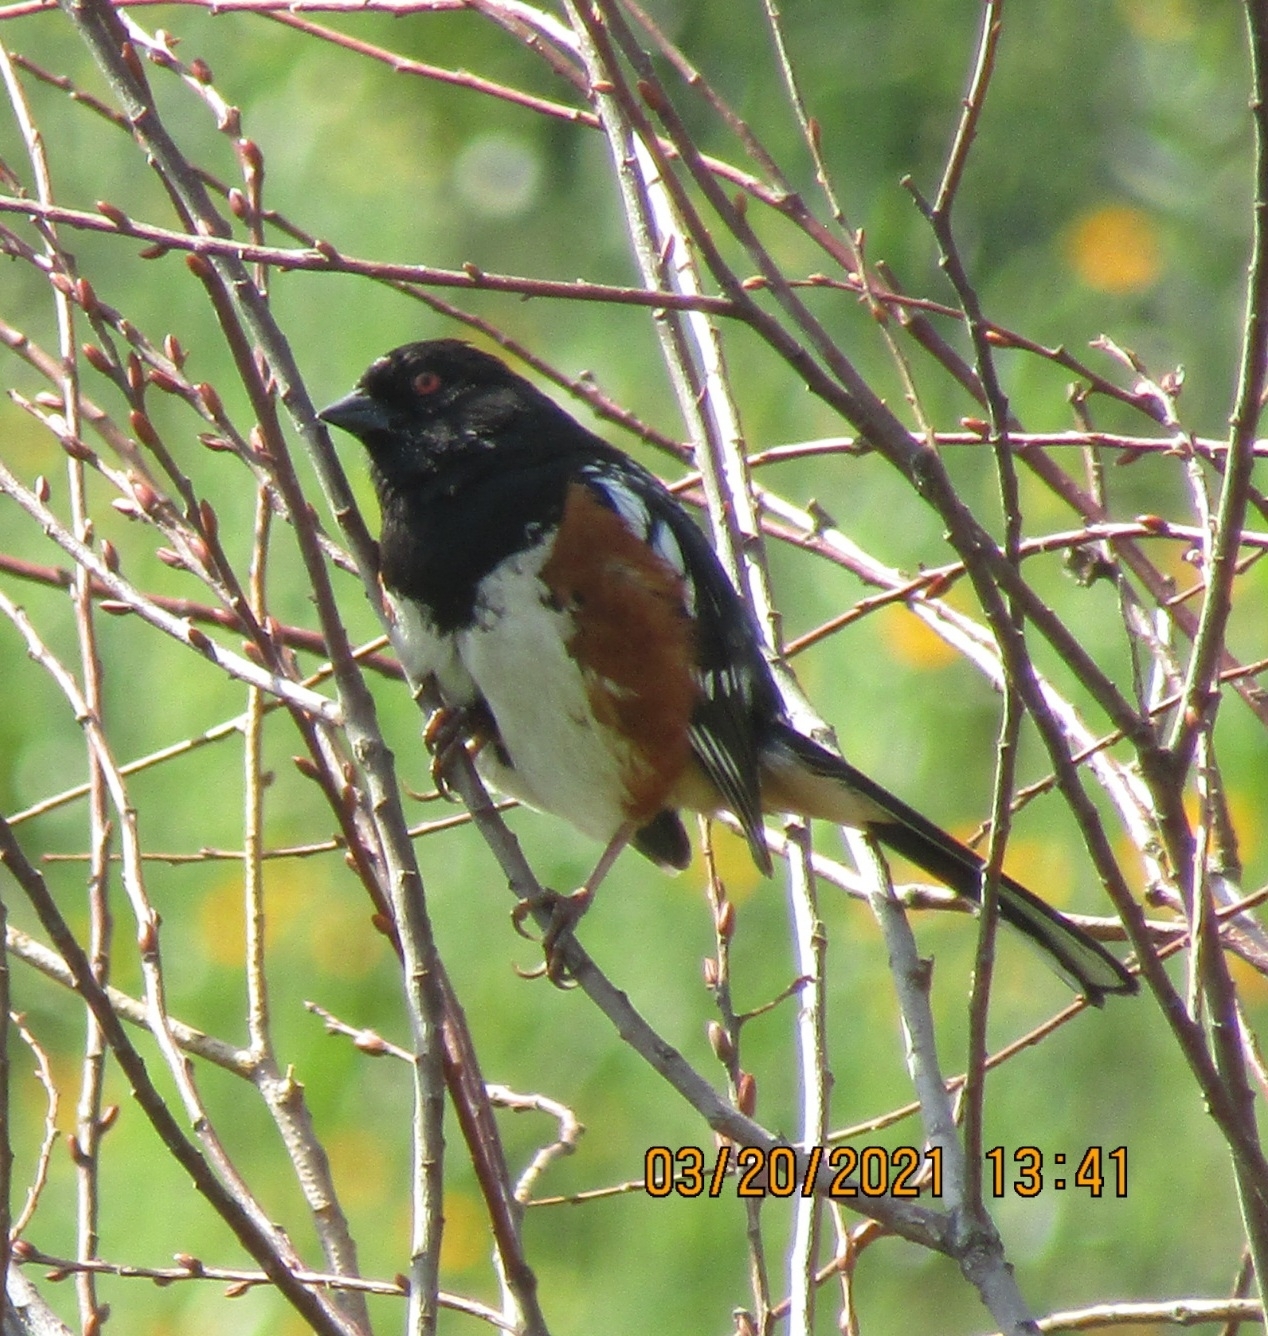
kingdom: Animalia
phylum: Chordata
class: Aves
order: Passeriformes
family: Passerellidae
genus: Pipilo
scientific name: Pipilo maculatus
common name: Spotted towhee
